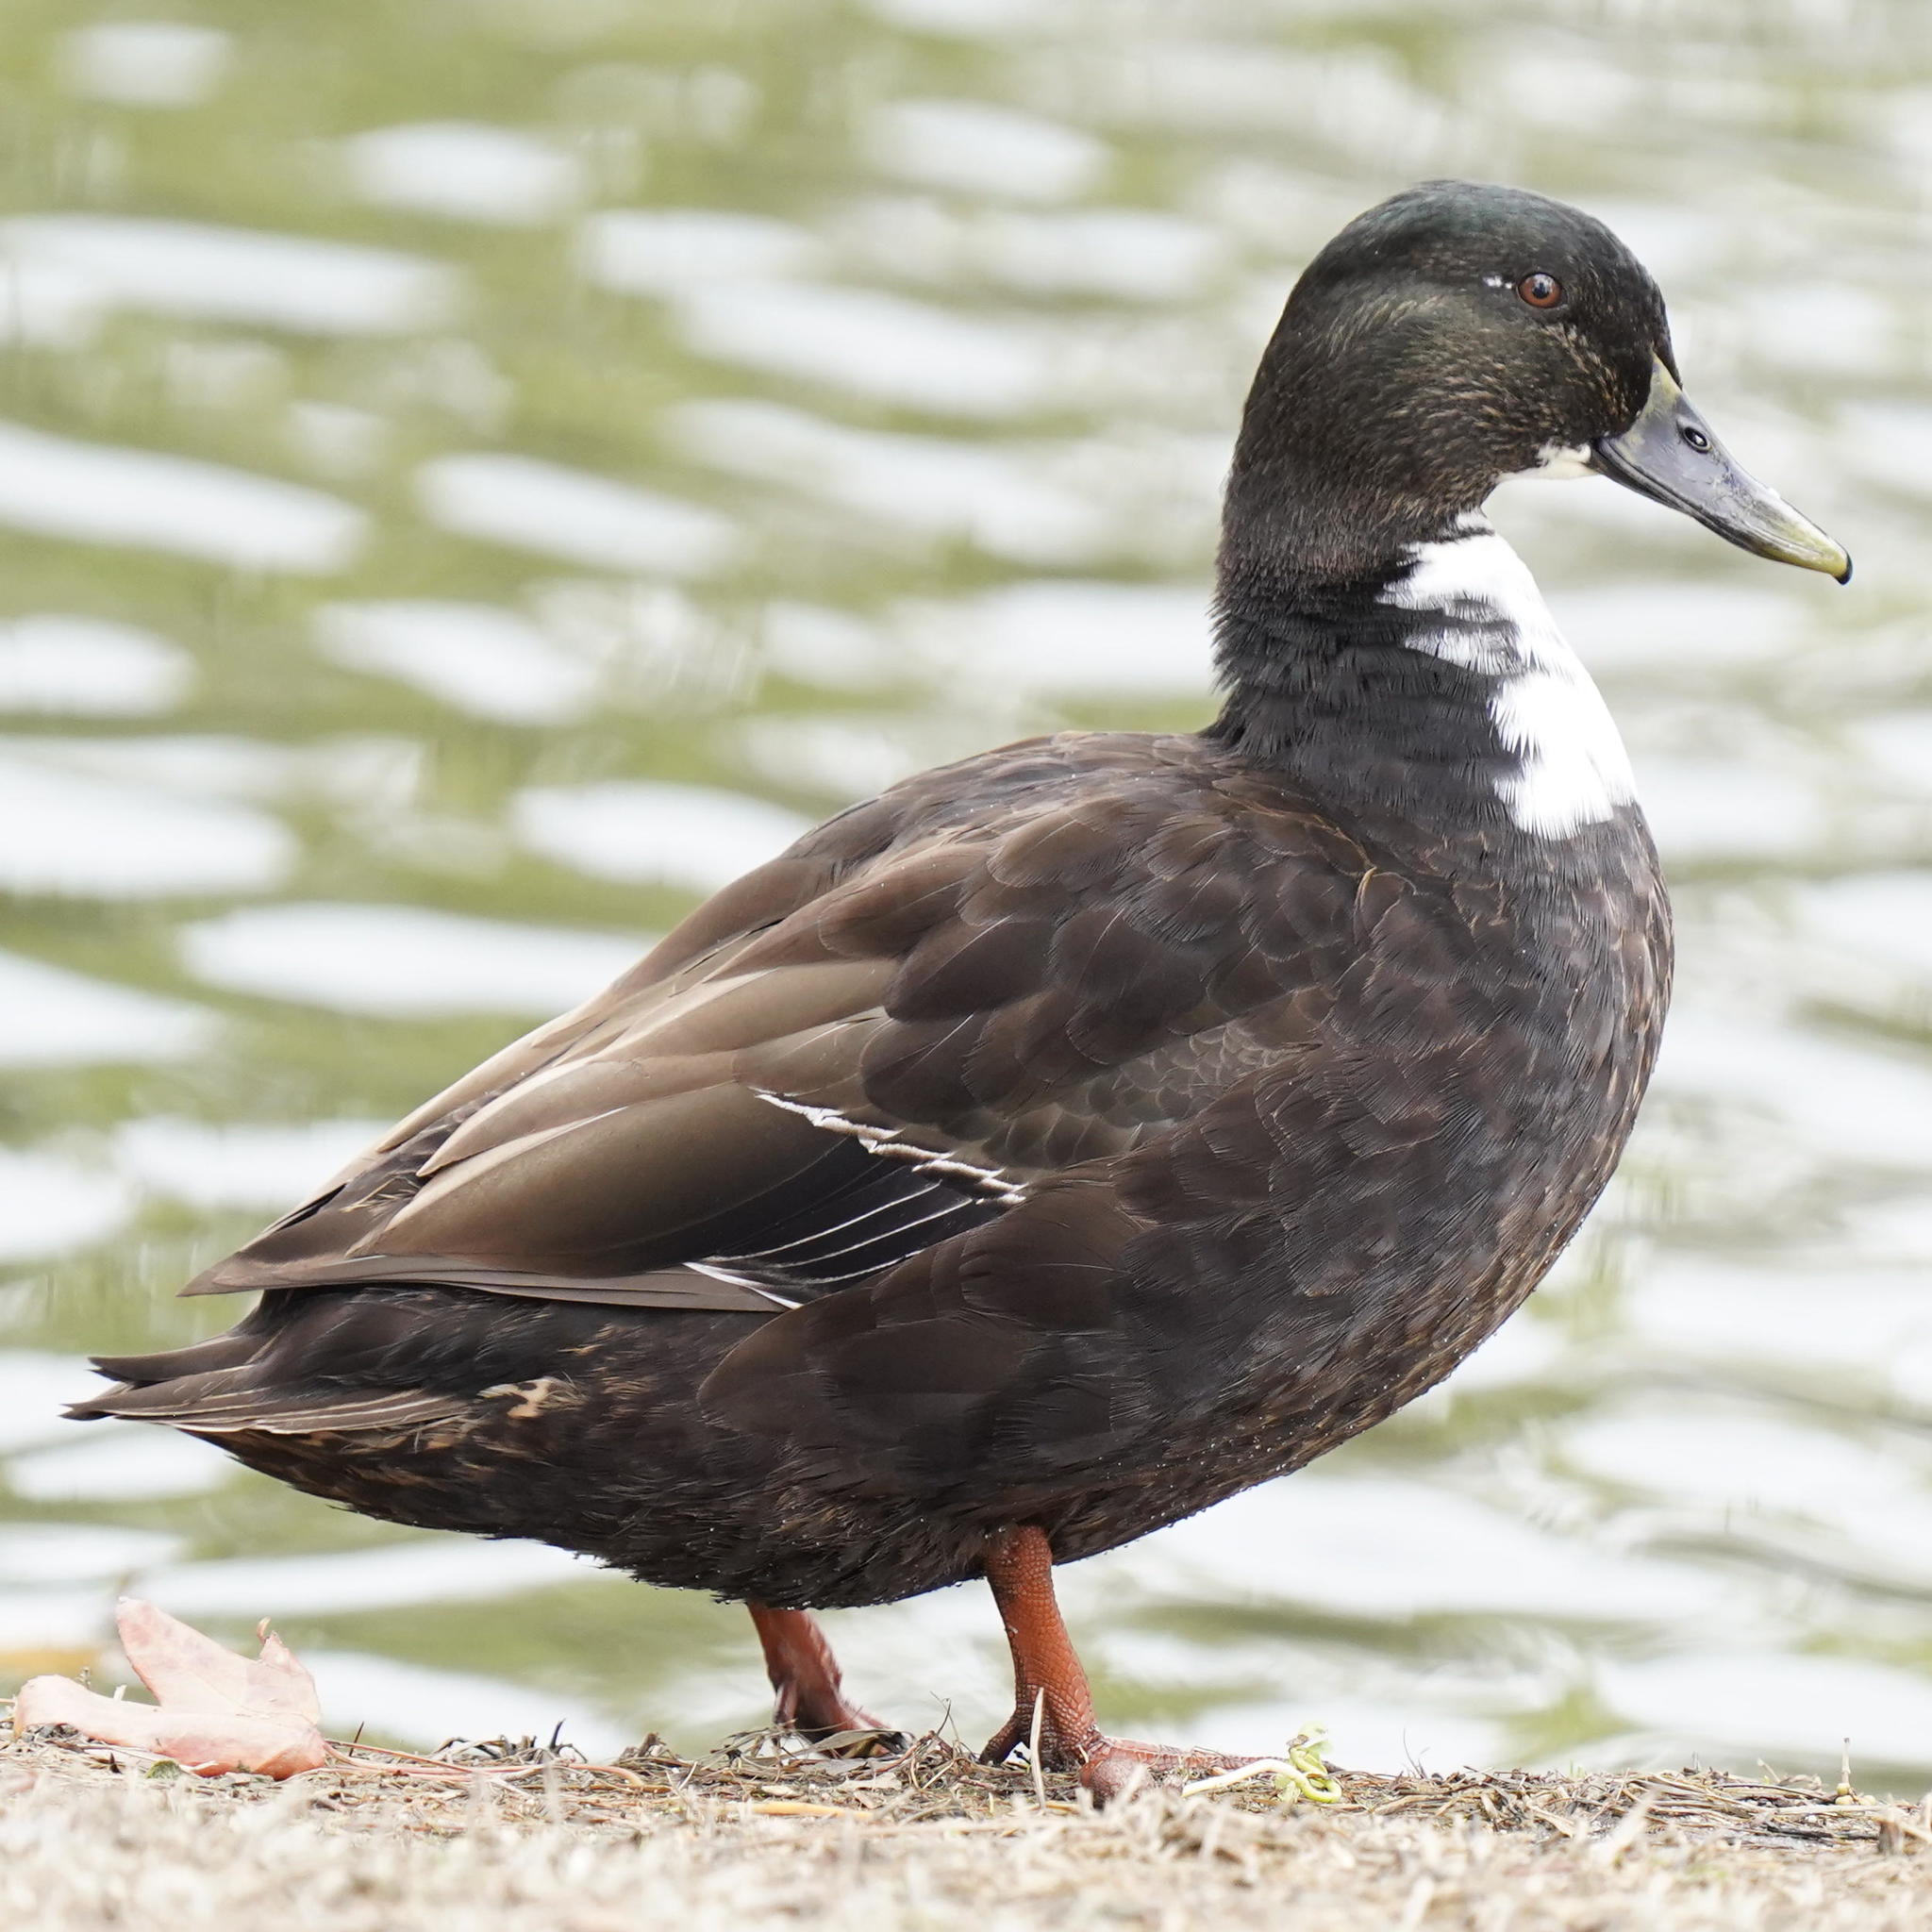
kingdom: Animalia
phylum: Chordata
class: Aves
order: Anseriformes
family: Anatidae
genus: Anas
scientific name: Anas platyrhynchos
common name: Mallard
